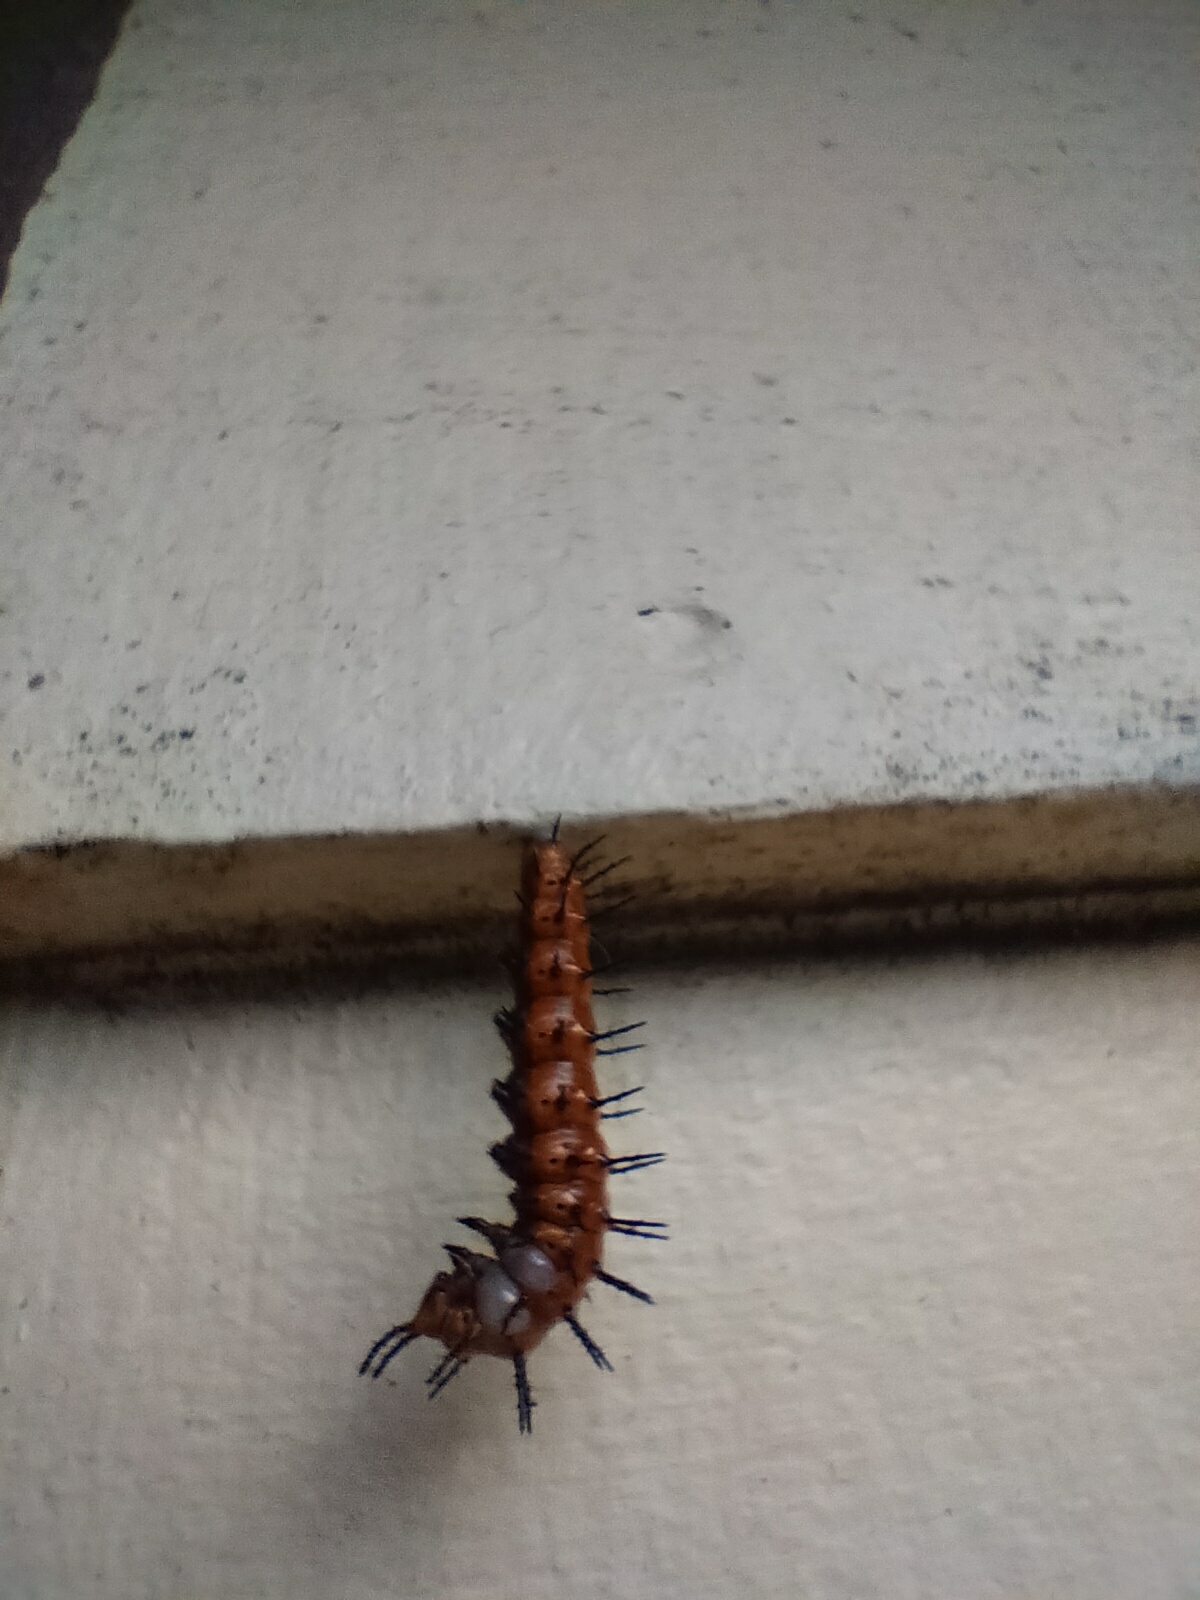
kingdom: Animalia
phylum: Arthropoda
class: Insecta
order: Lepidoptera
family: Nymphalidae
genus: Dione
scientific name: Dione vanillae
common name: Gulf fritillary
